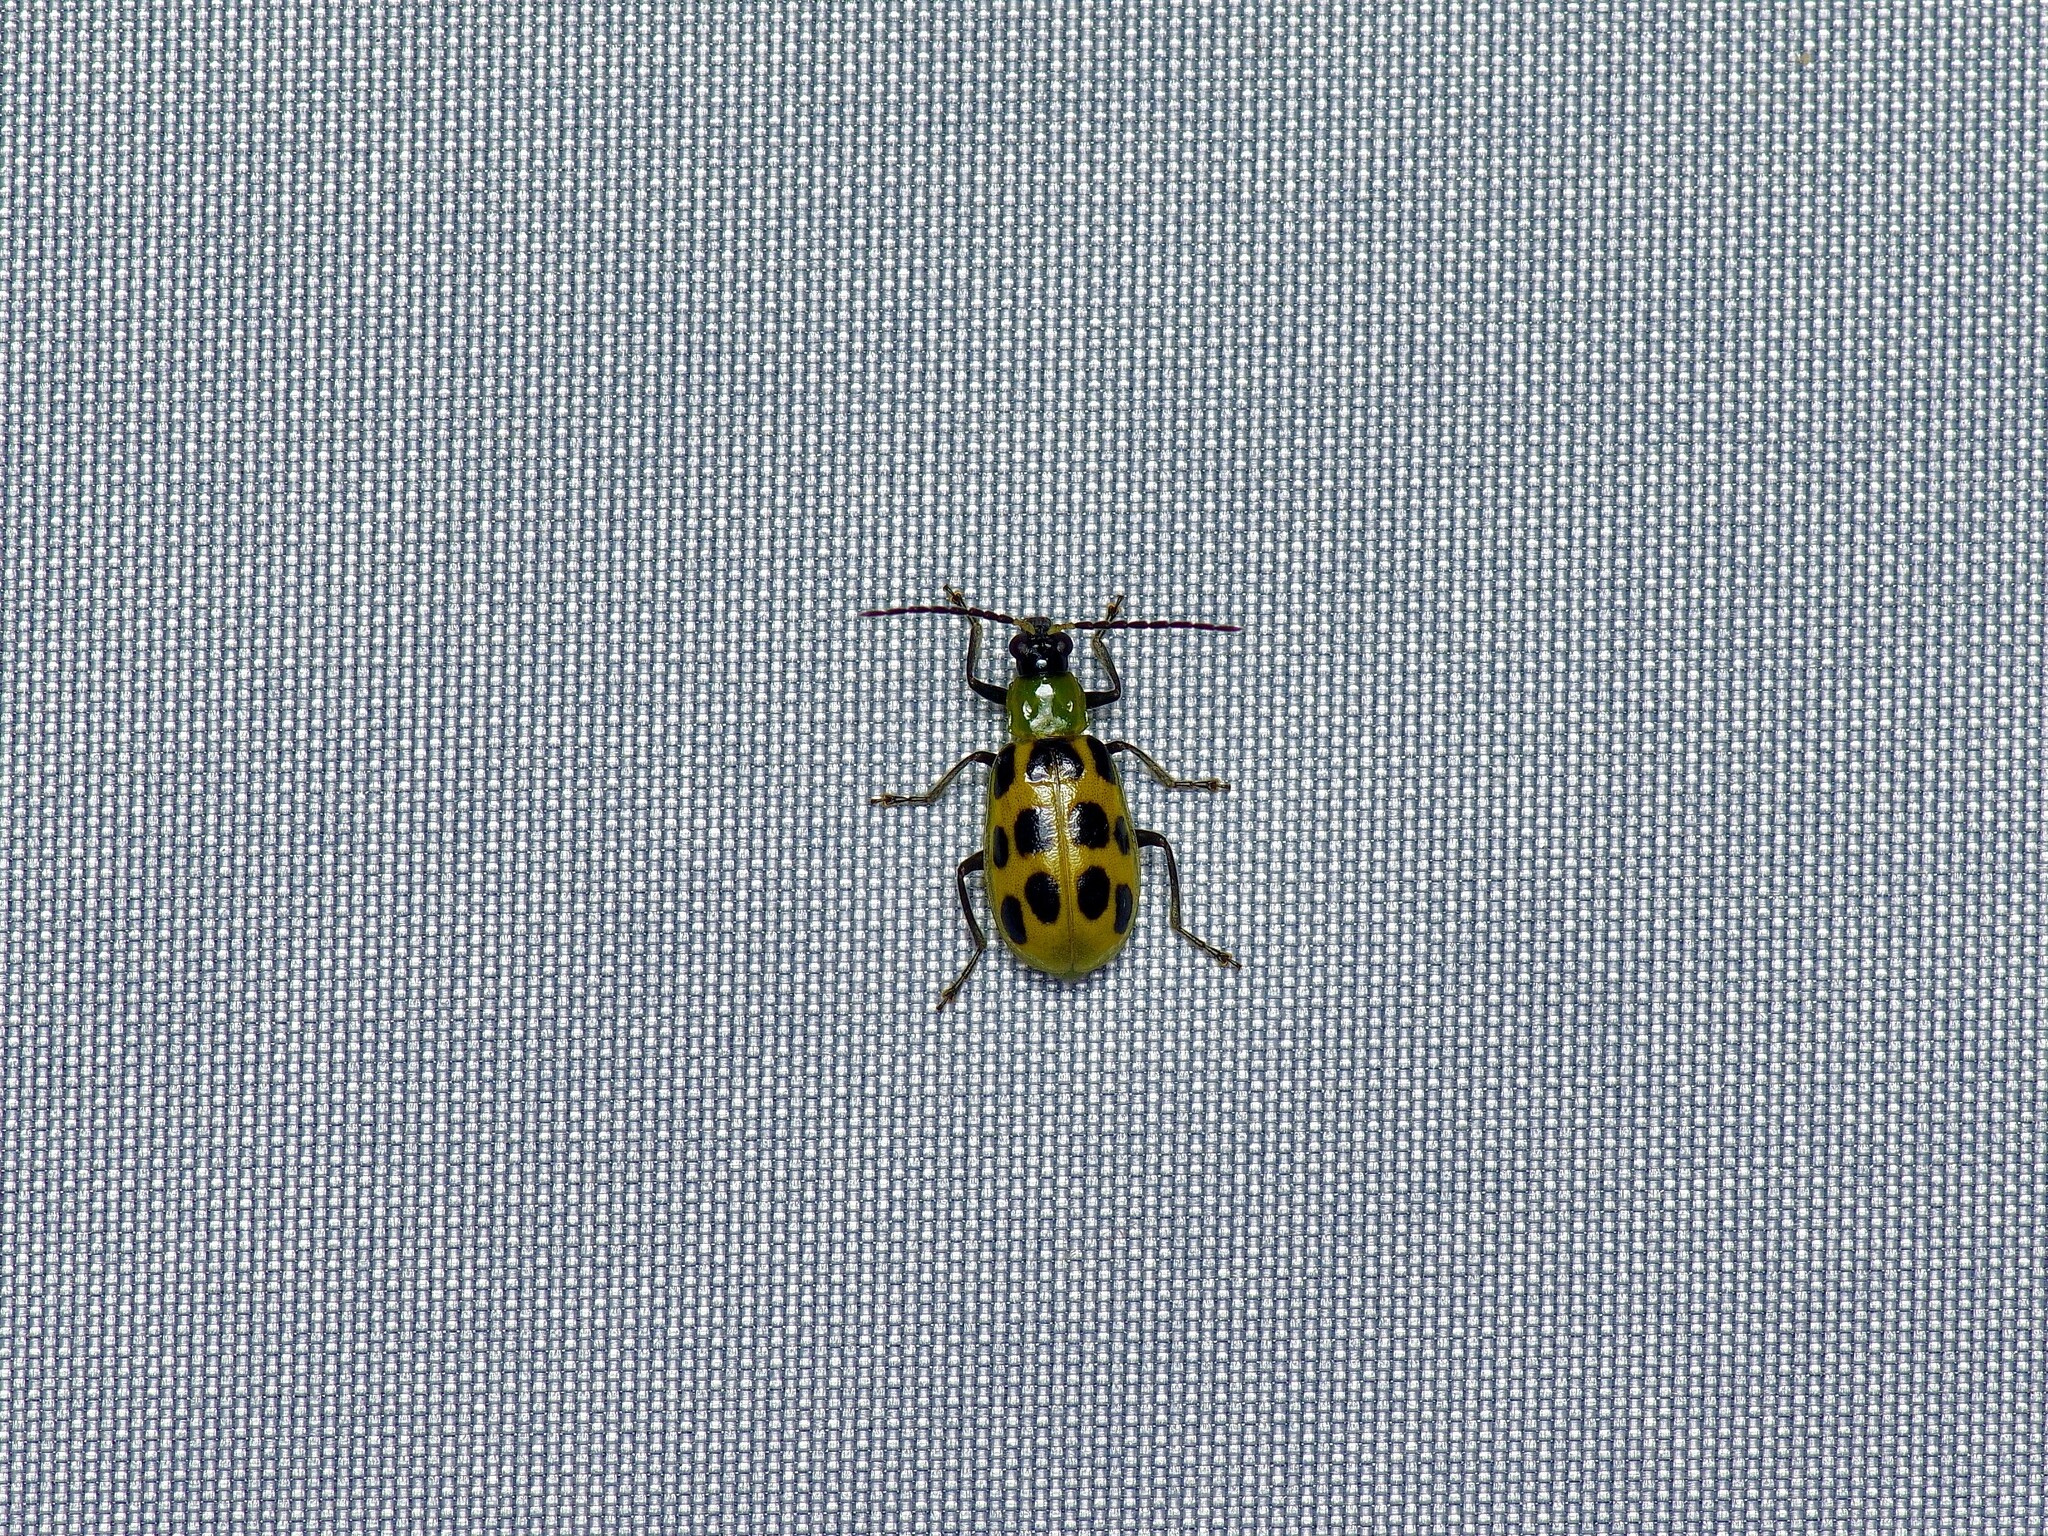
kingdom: Animalia
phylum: Arthropoda
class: Insecta
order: Coleoptera
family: Chrysomelidae
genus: Diabrotica
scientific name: Diabrotica undecimpunctata
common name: Spotted cucumber beetle
